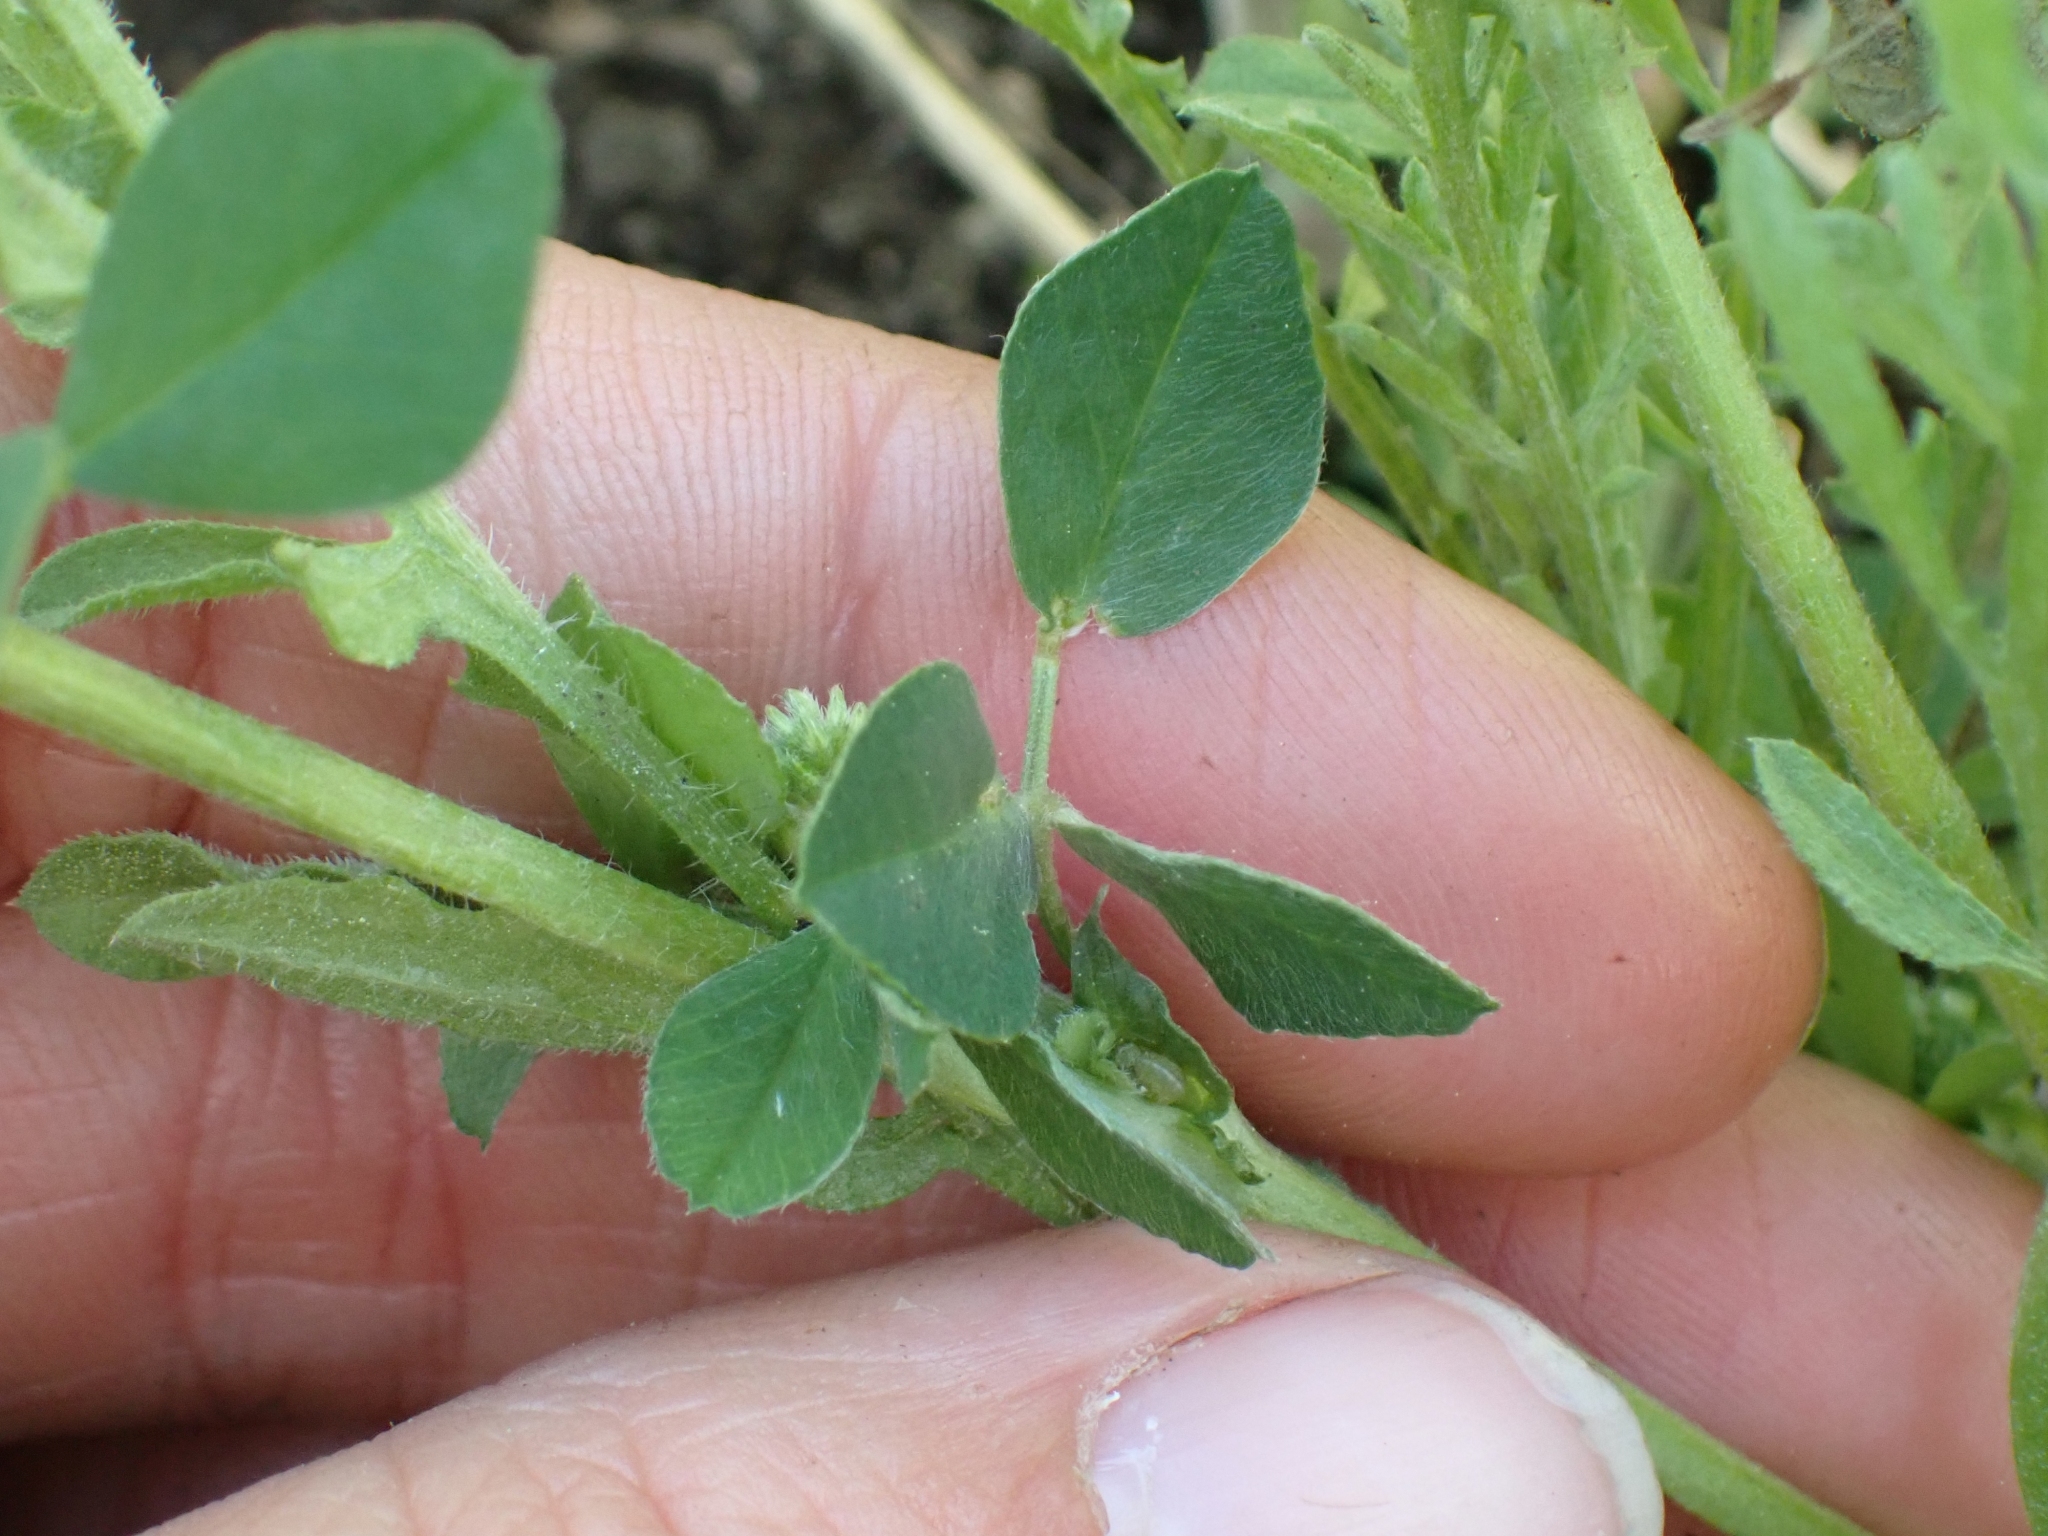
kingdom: Plantae
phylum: Tracheophyta
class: Magnoliopsida
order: Fabales
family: Fabaceae
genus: Medicago
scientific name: Medicago lupulina
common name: Black medick
